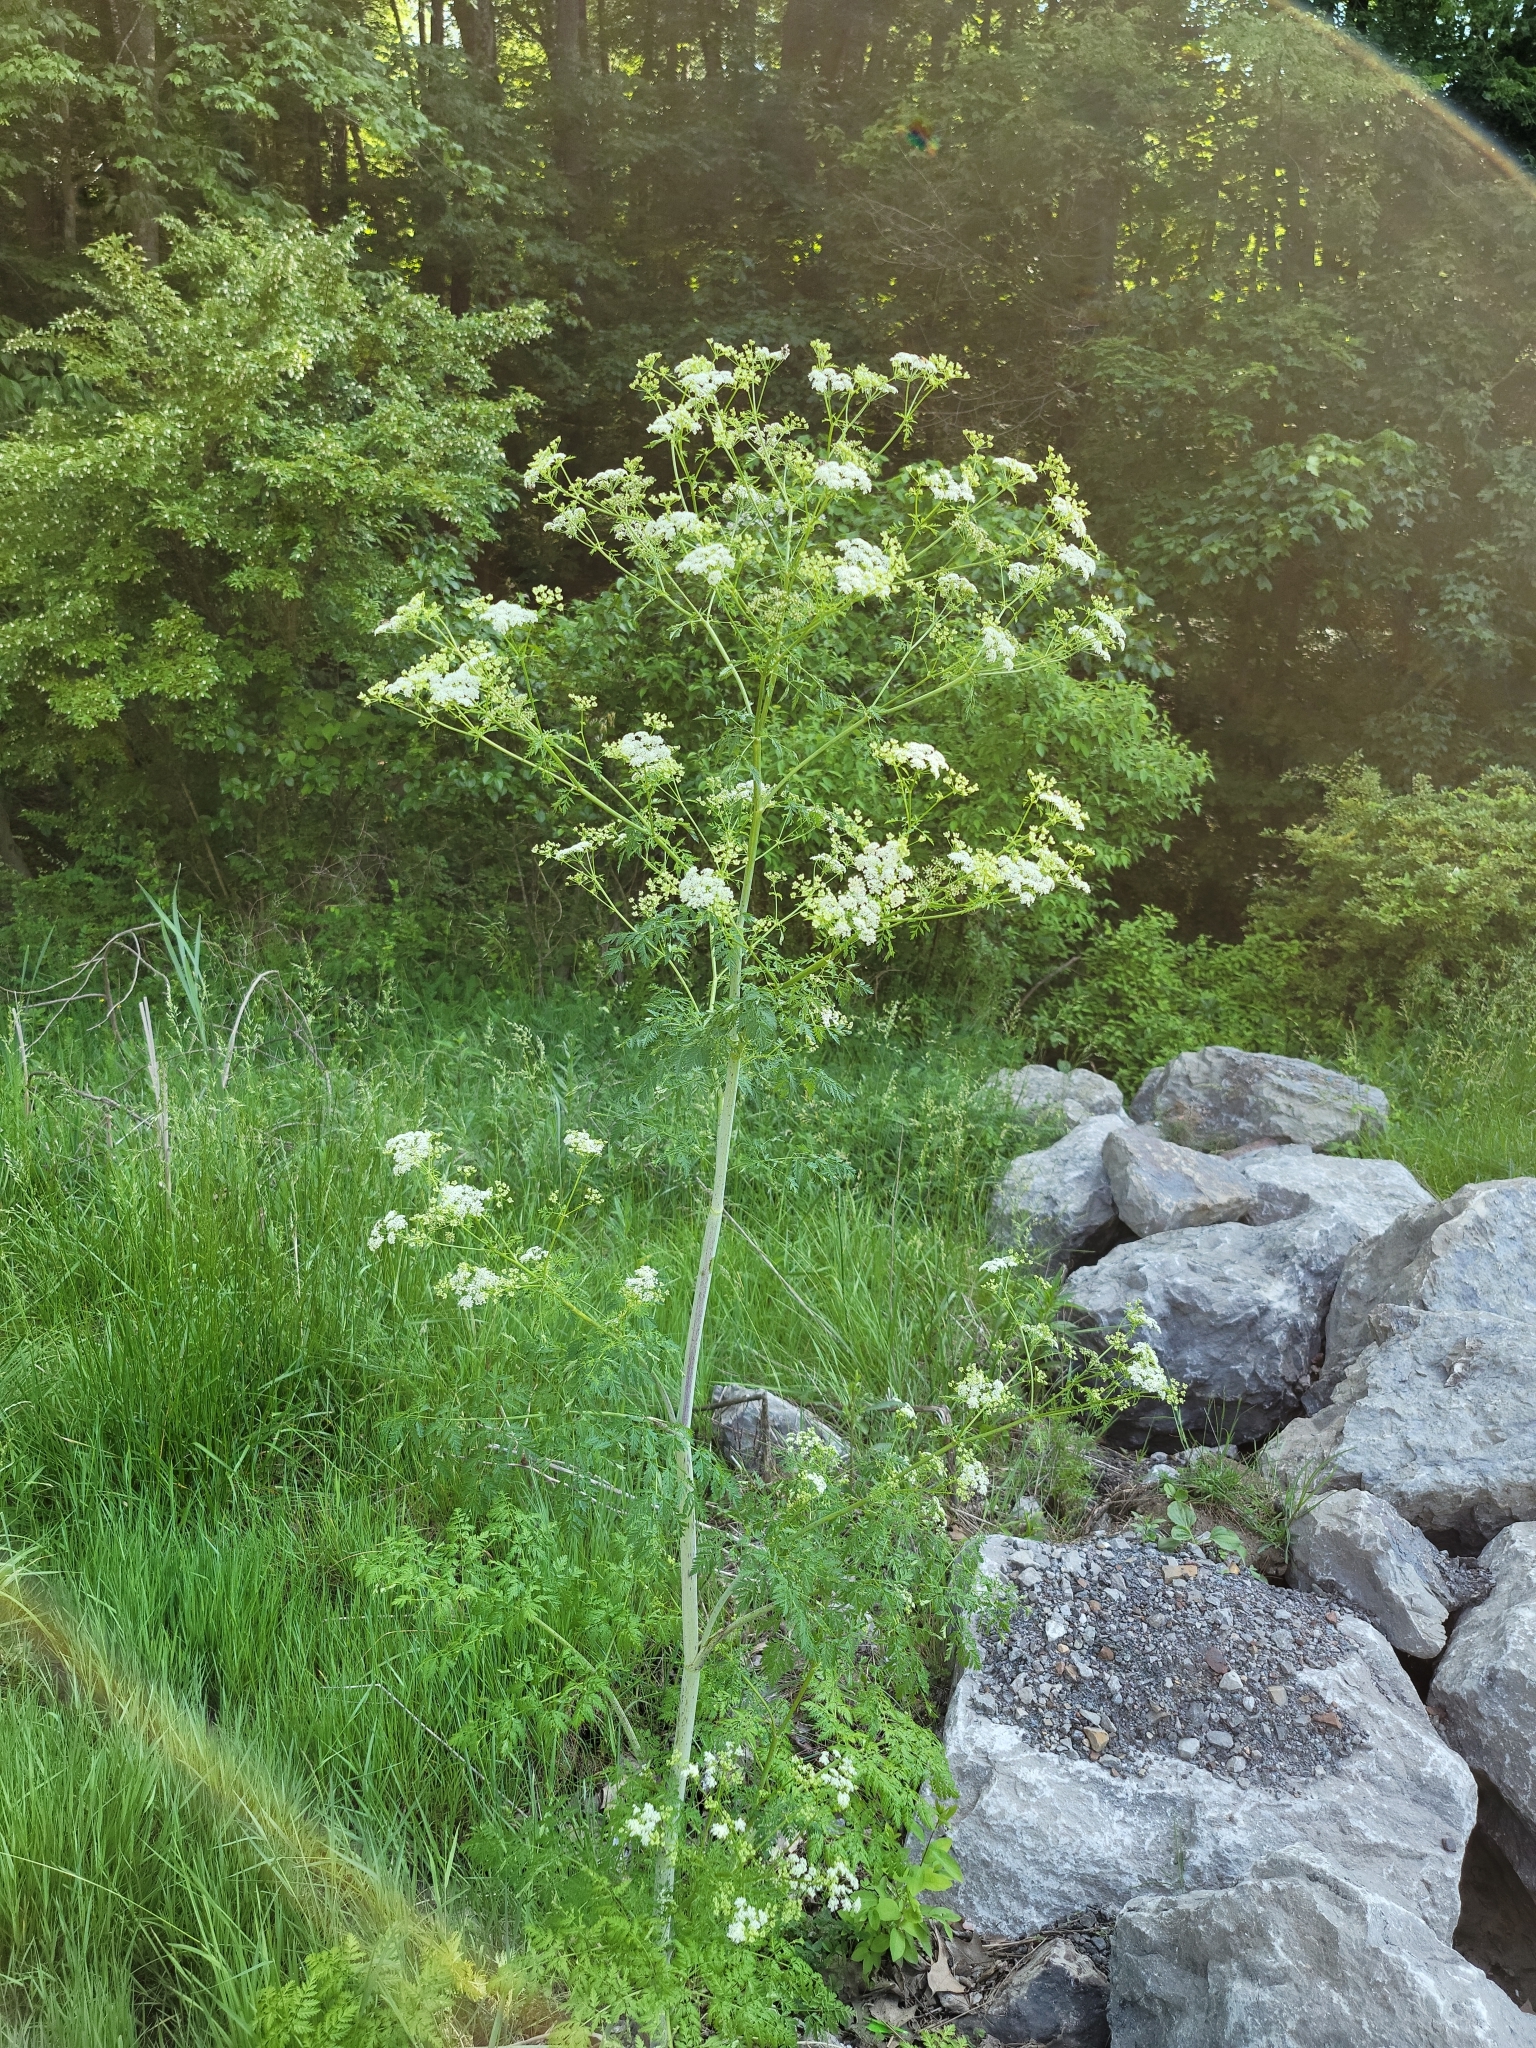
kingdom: Plantae
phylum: Tracheophyta
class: Magnoliopsida
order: Apiales
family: Apiaceae
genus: Conium
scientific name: Conium maculatum
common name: Hemlock
